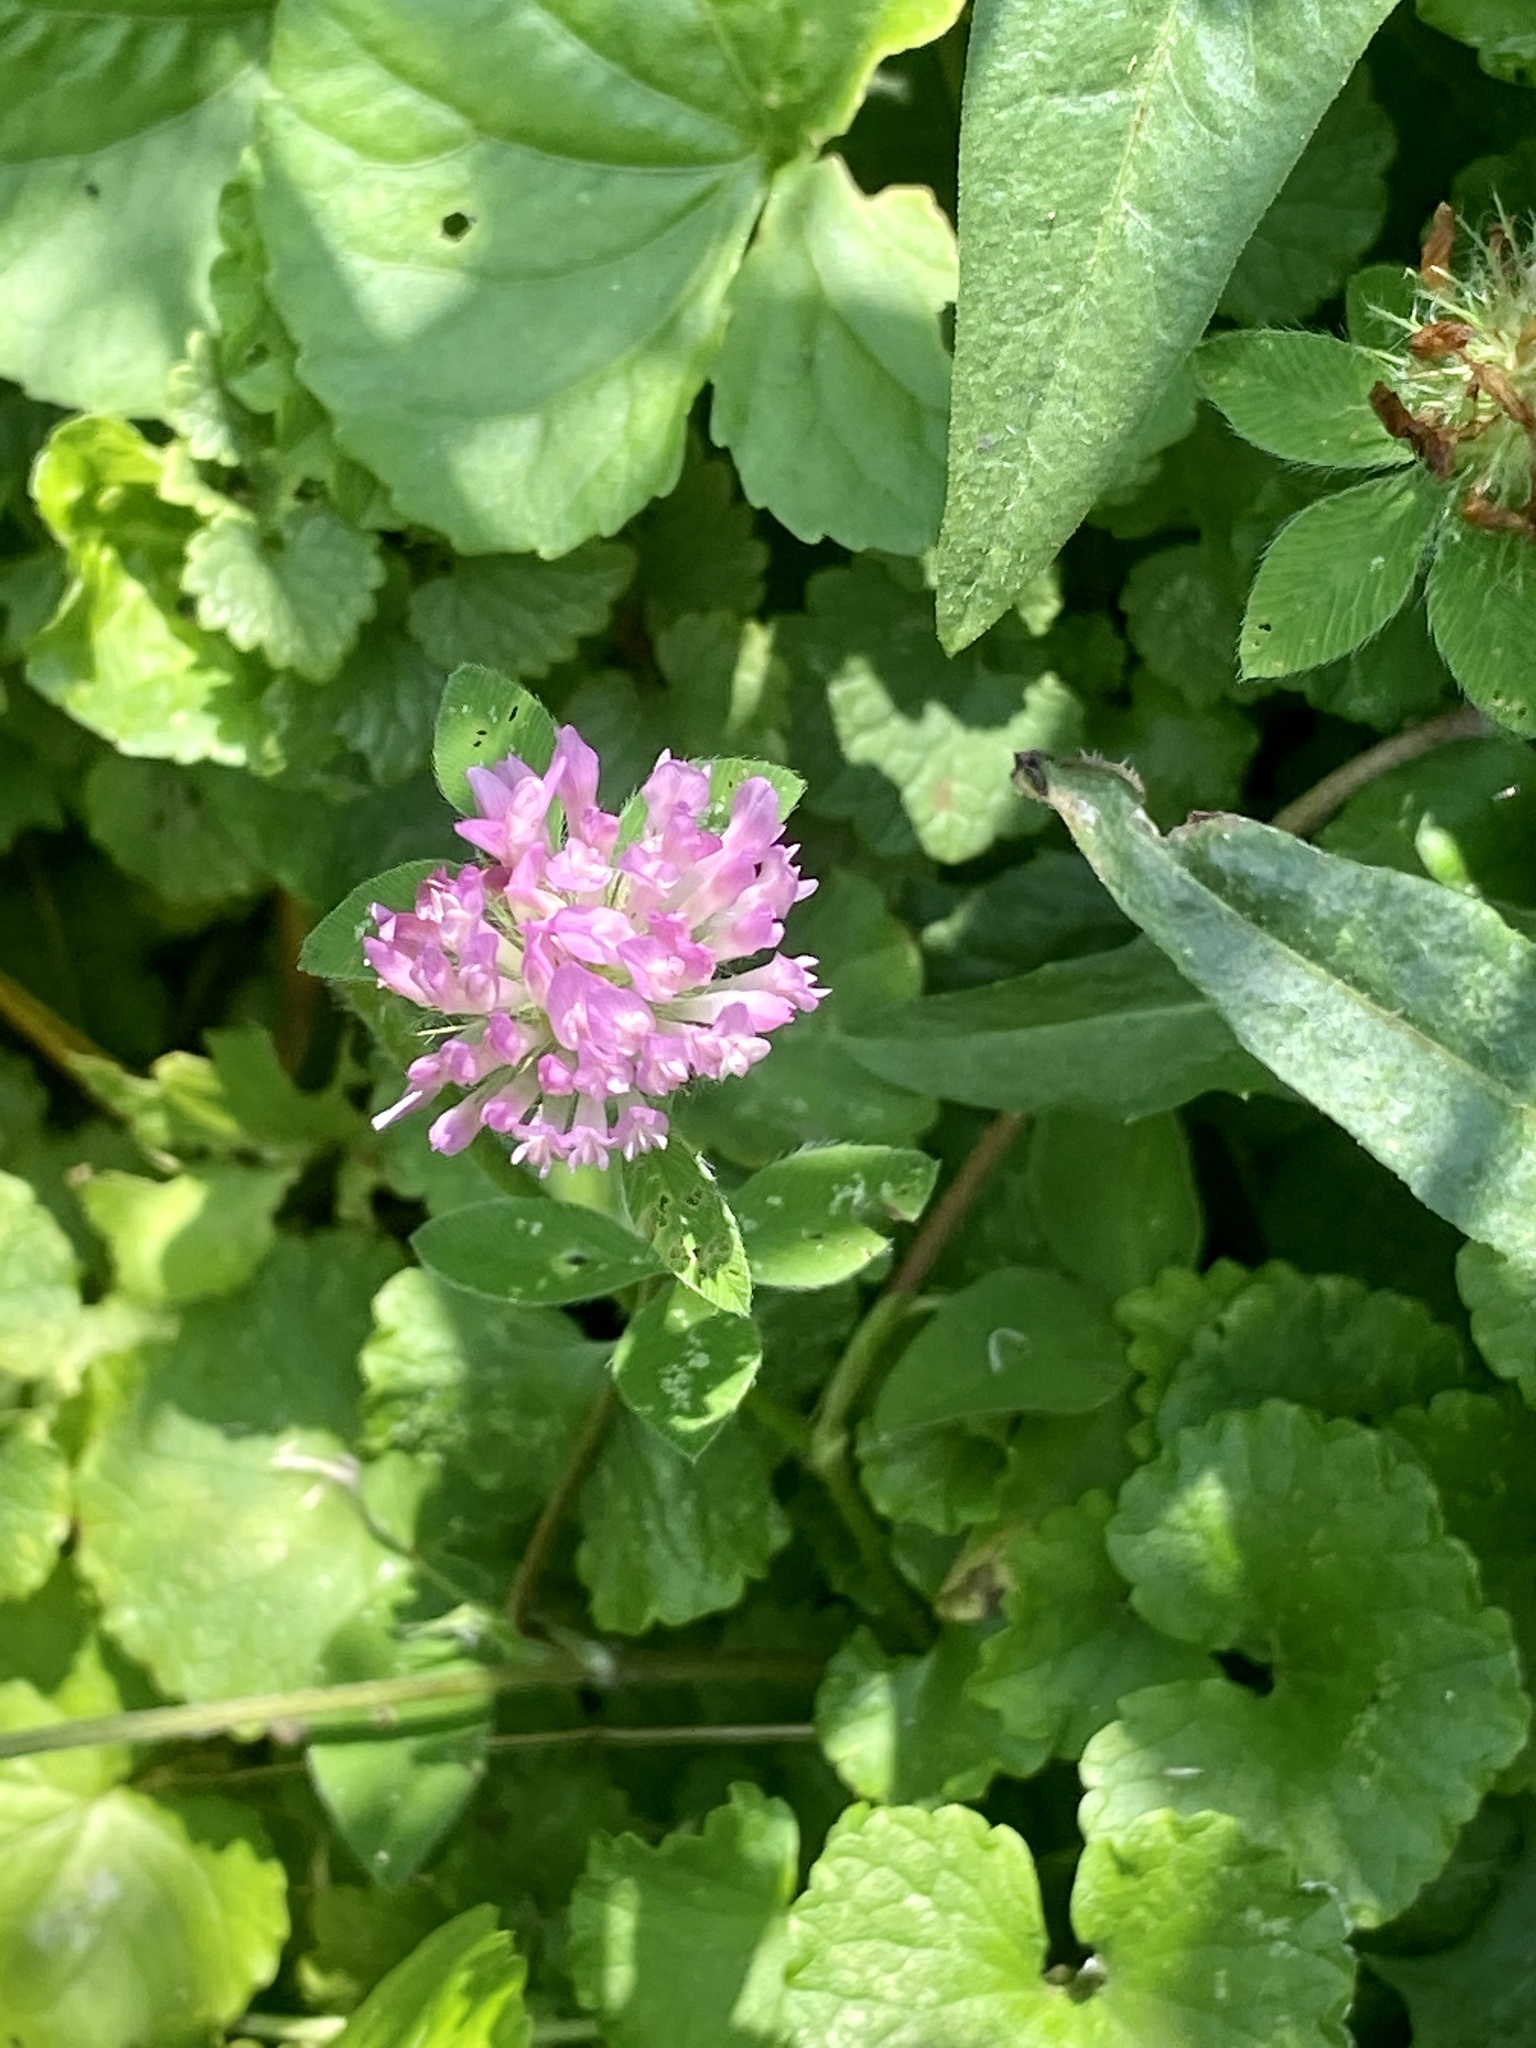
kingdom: Plantae
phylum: Tracheophyta
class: Magnoliopsida
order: Fabales
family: Fabaceae
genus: Trifolium
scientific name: Trifolium pratense
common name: Red clover
